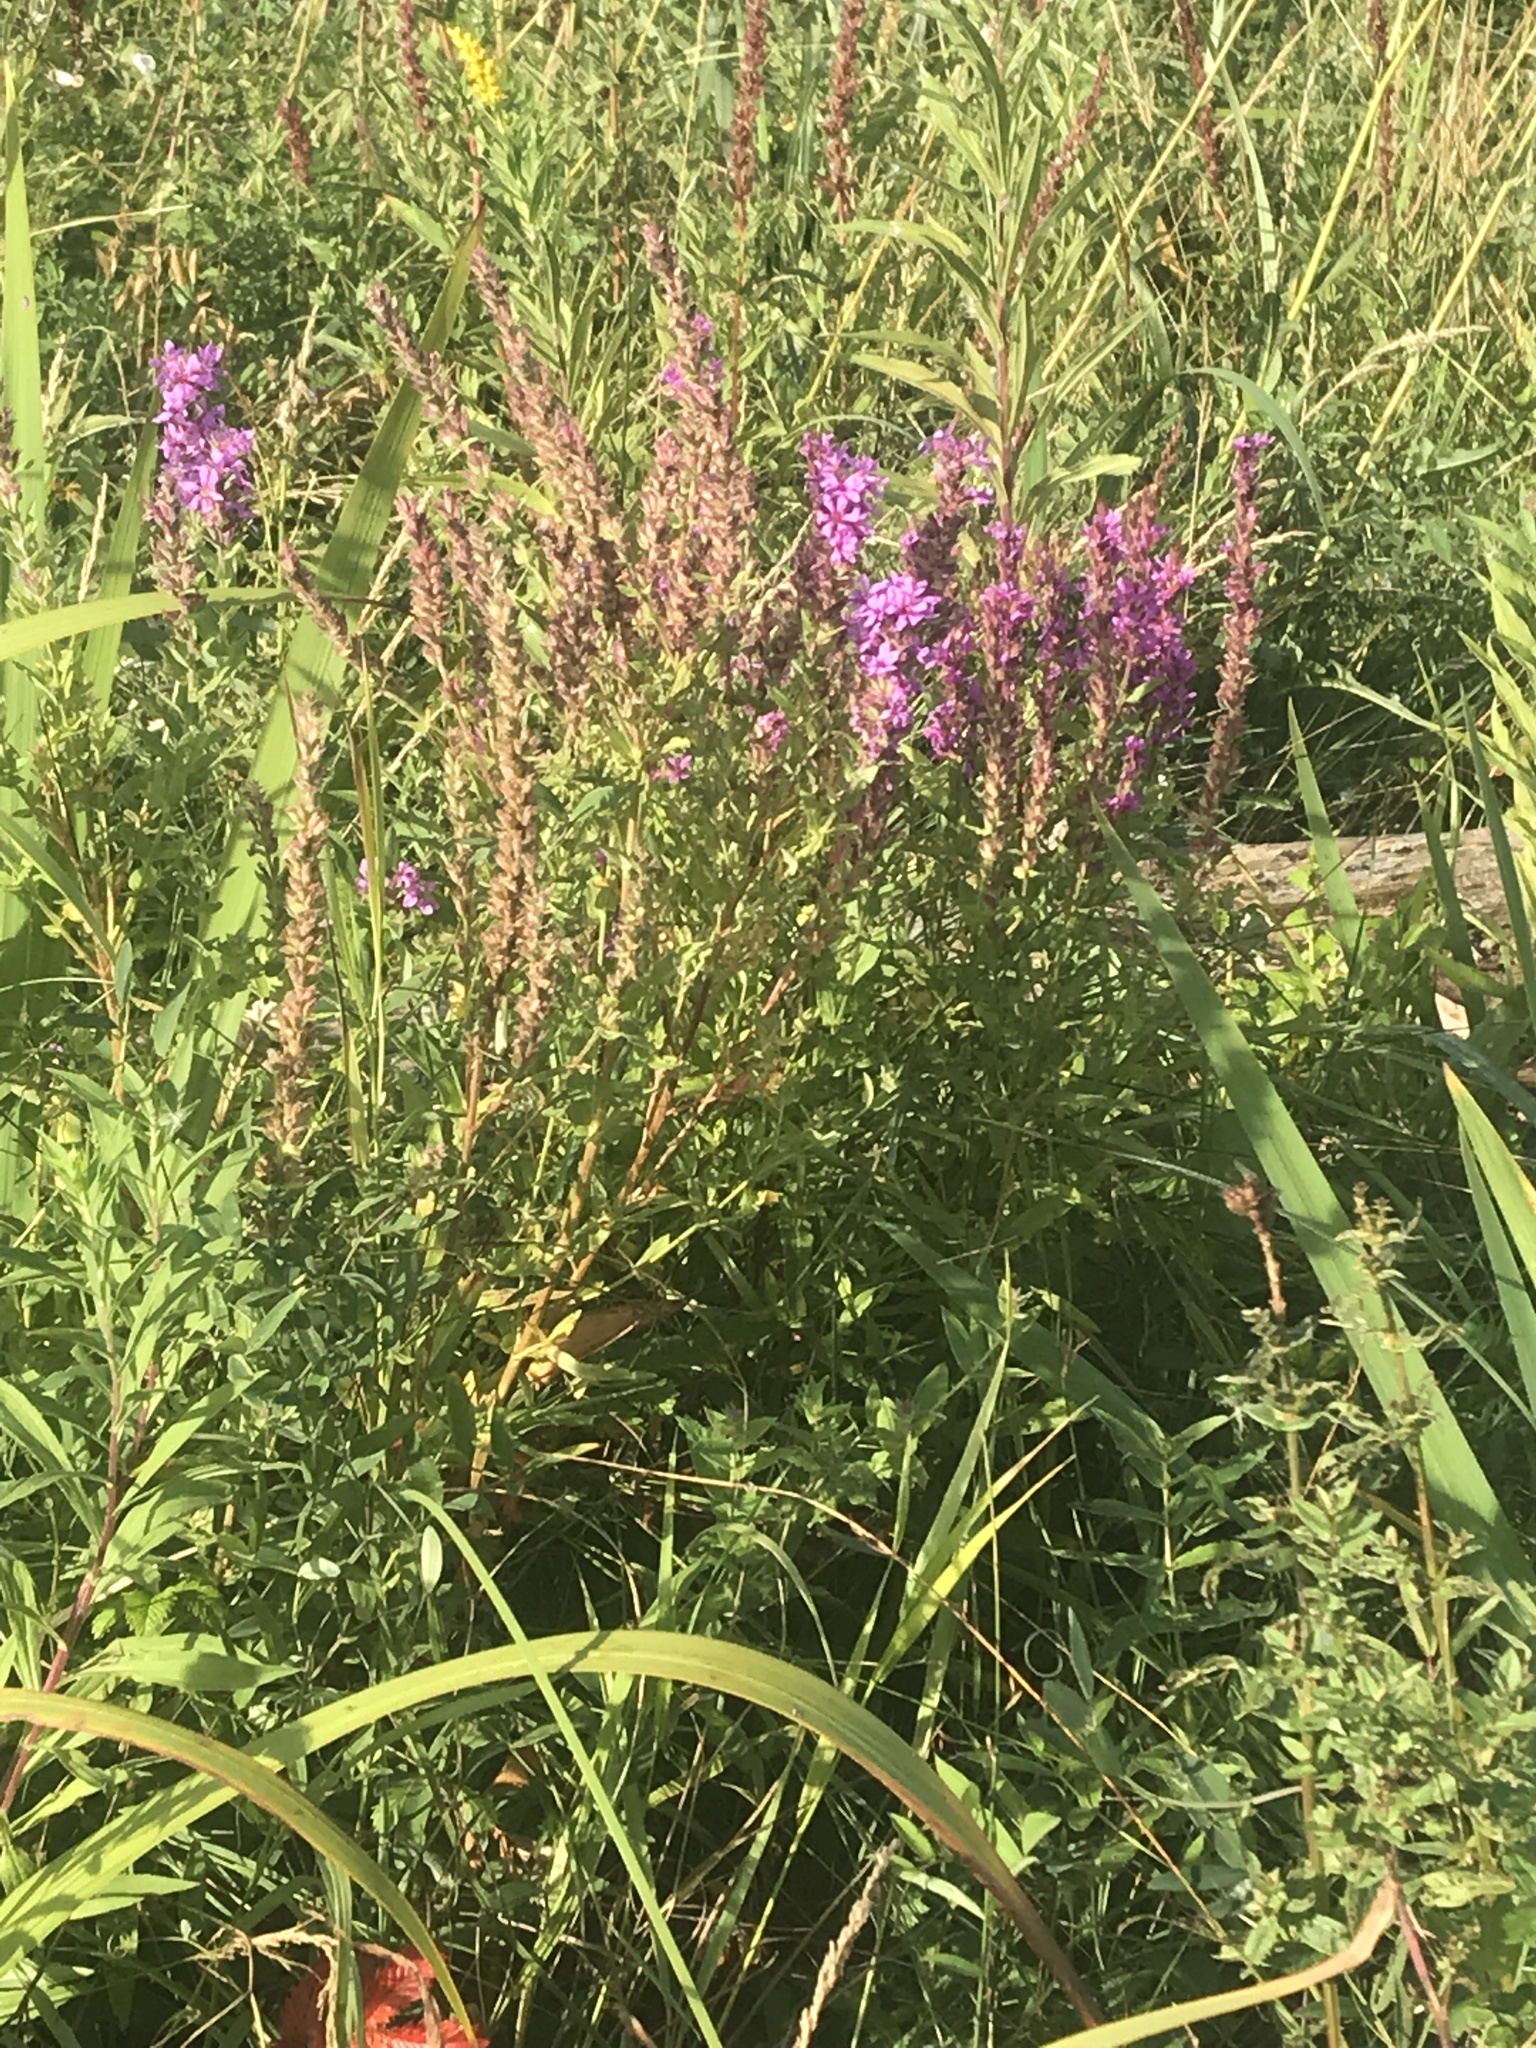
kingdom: Plantae
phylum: Tracheophyta
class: Magnoliopsida
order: Myrtales
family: Lythraceae
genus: Lythrum
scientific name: Lythrum salicaria
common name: Purple loosestrife
